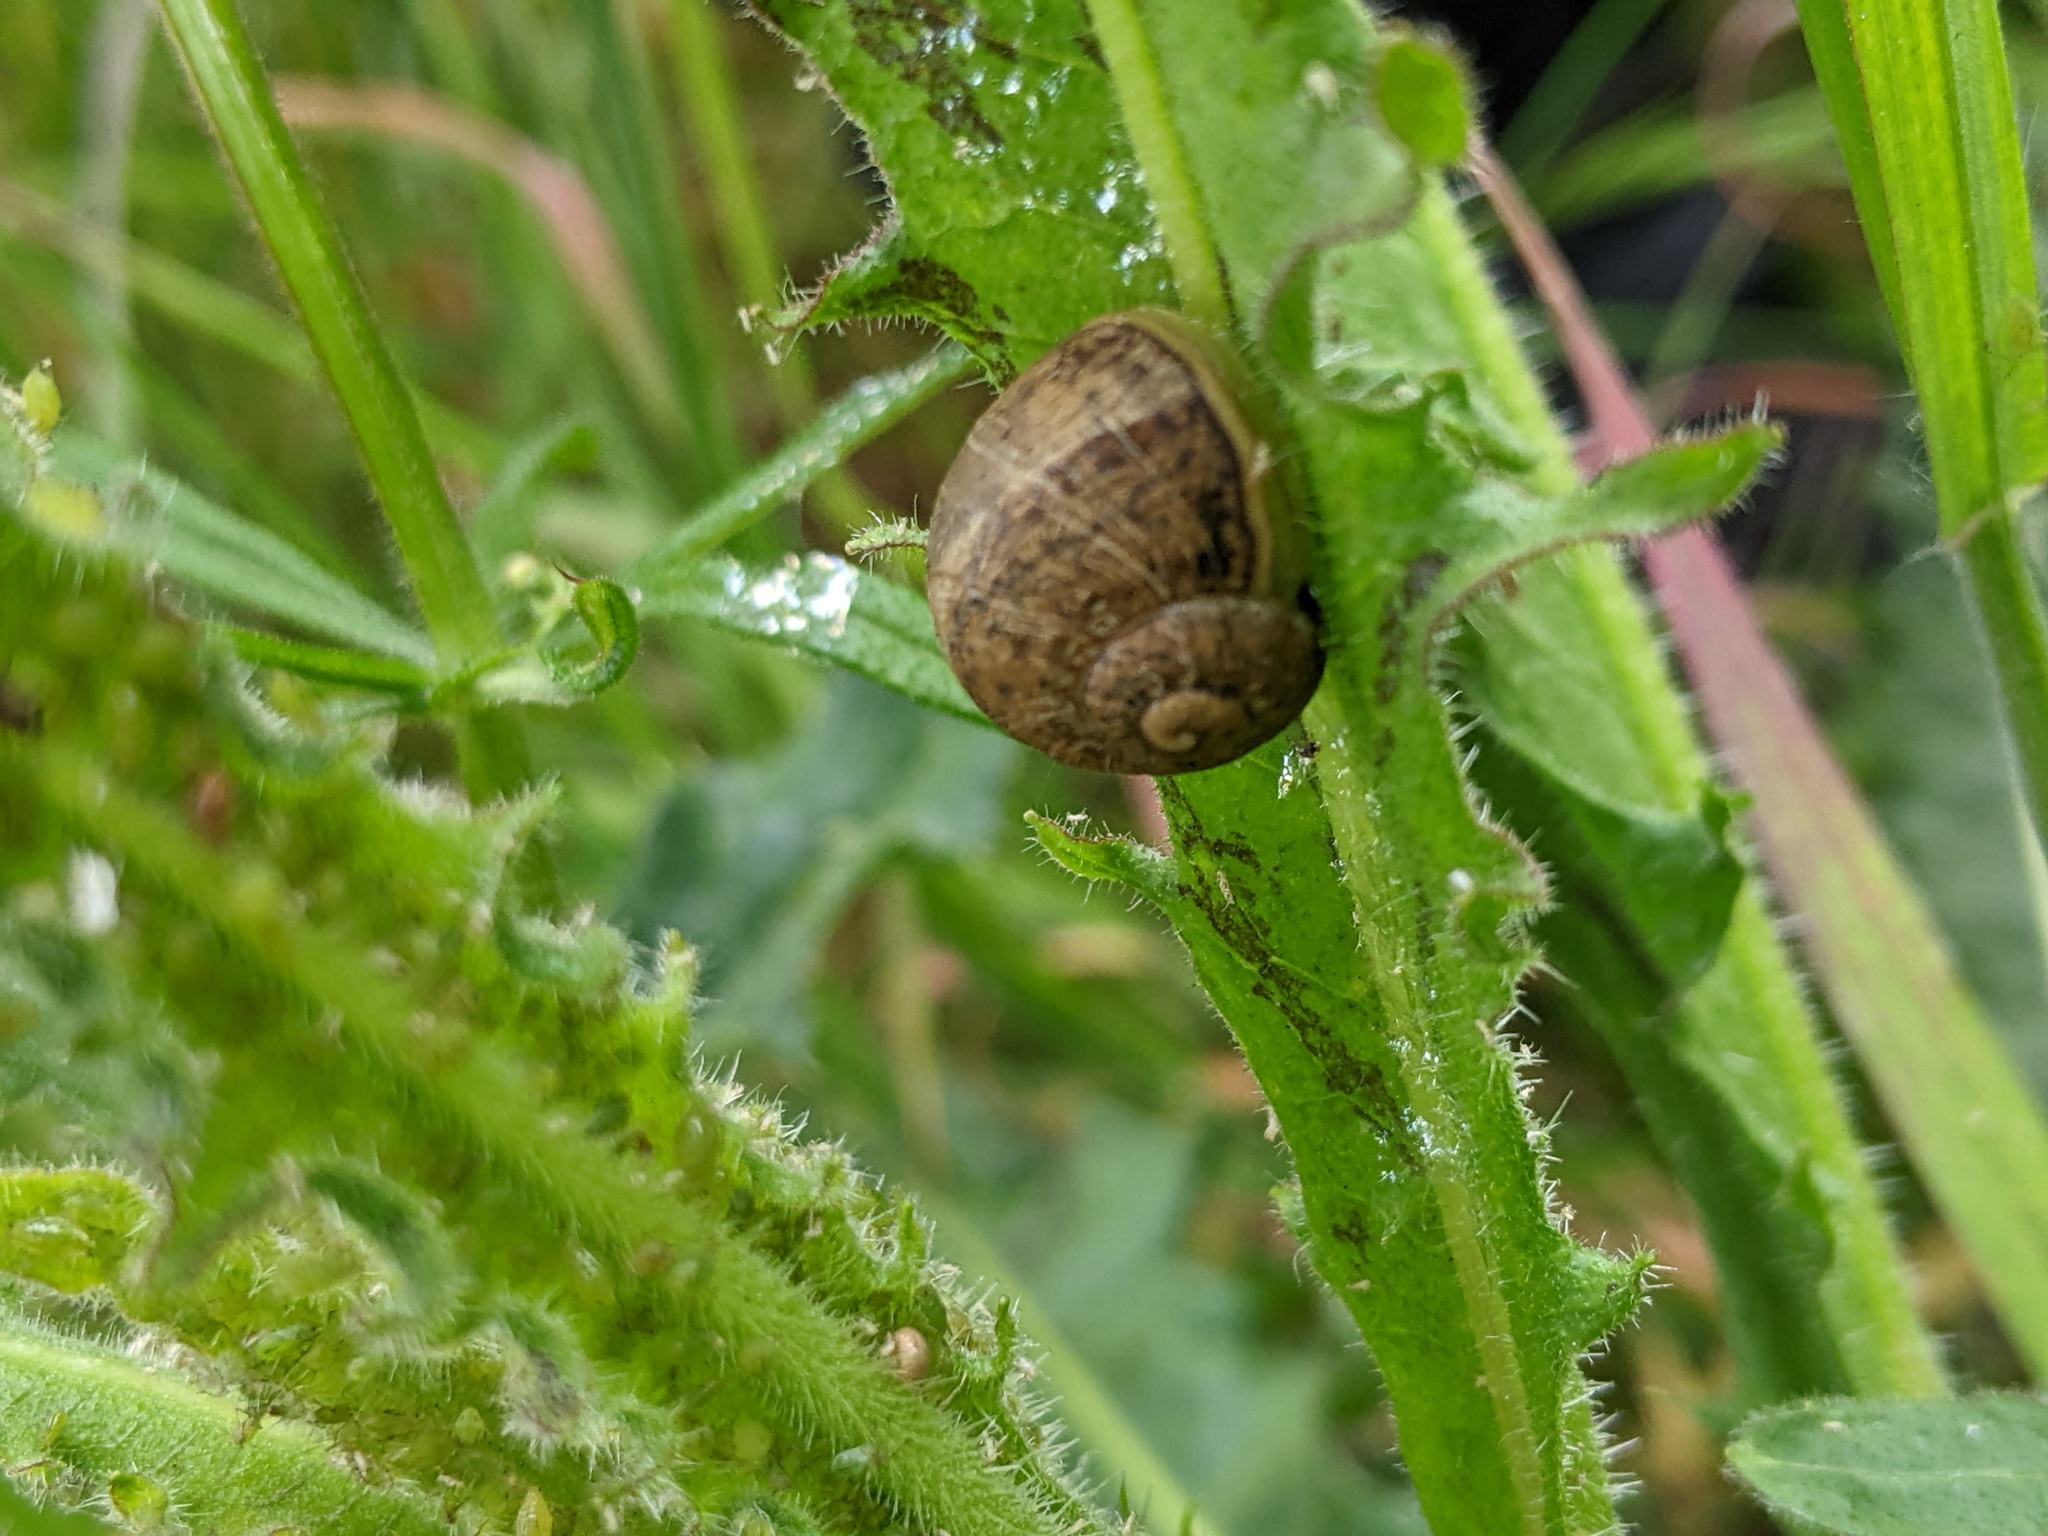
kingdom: Animalia
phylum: Mollusca
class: Gastropoda
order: Stylommatophora
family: Helicidae
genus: Cornu
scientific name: Cornu aspersum
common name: Brown garden snail
